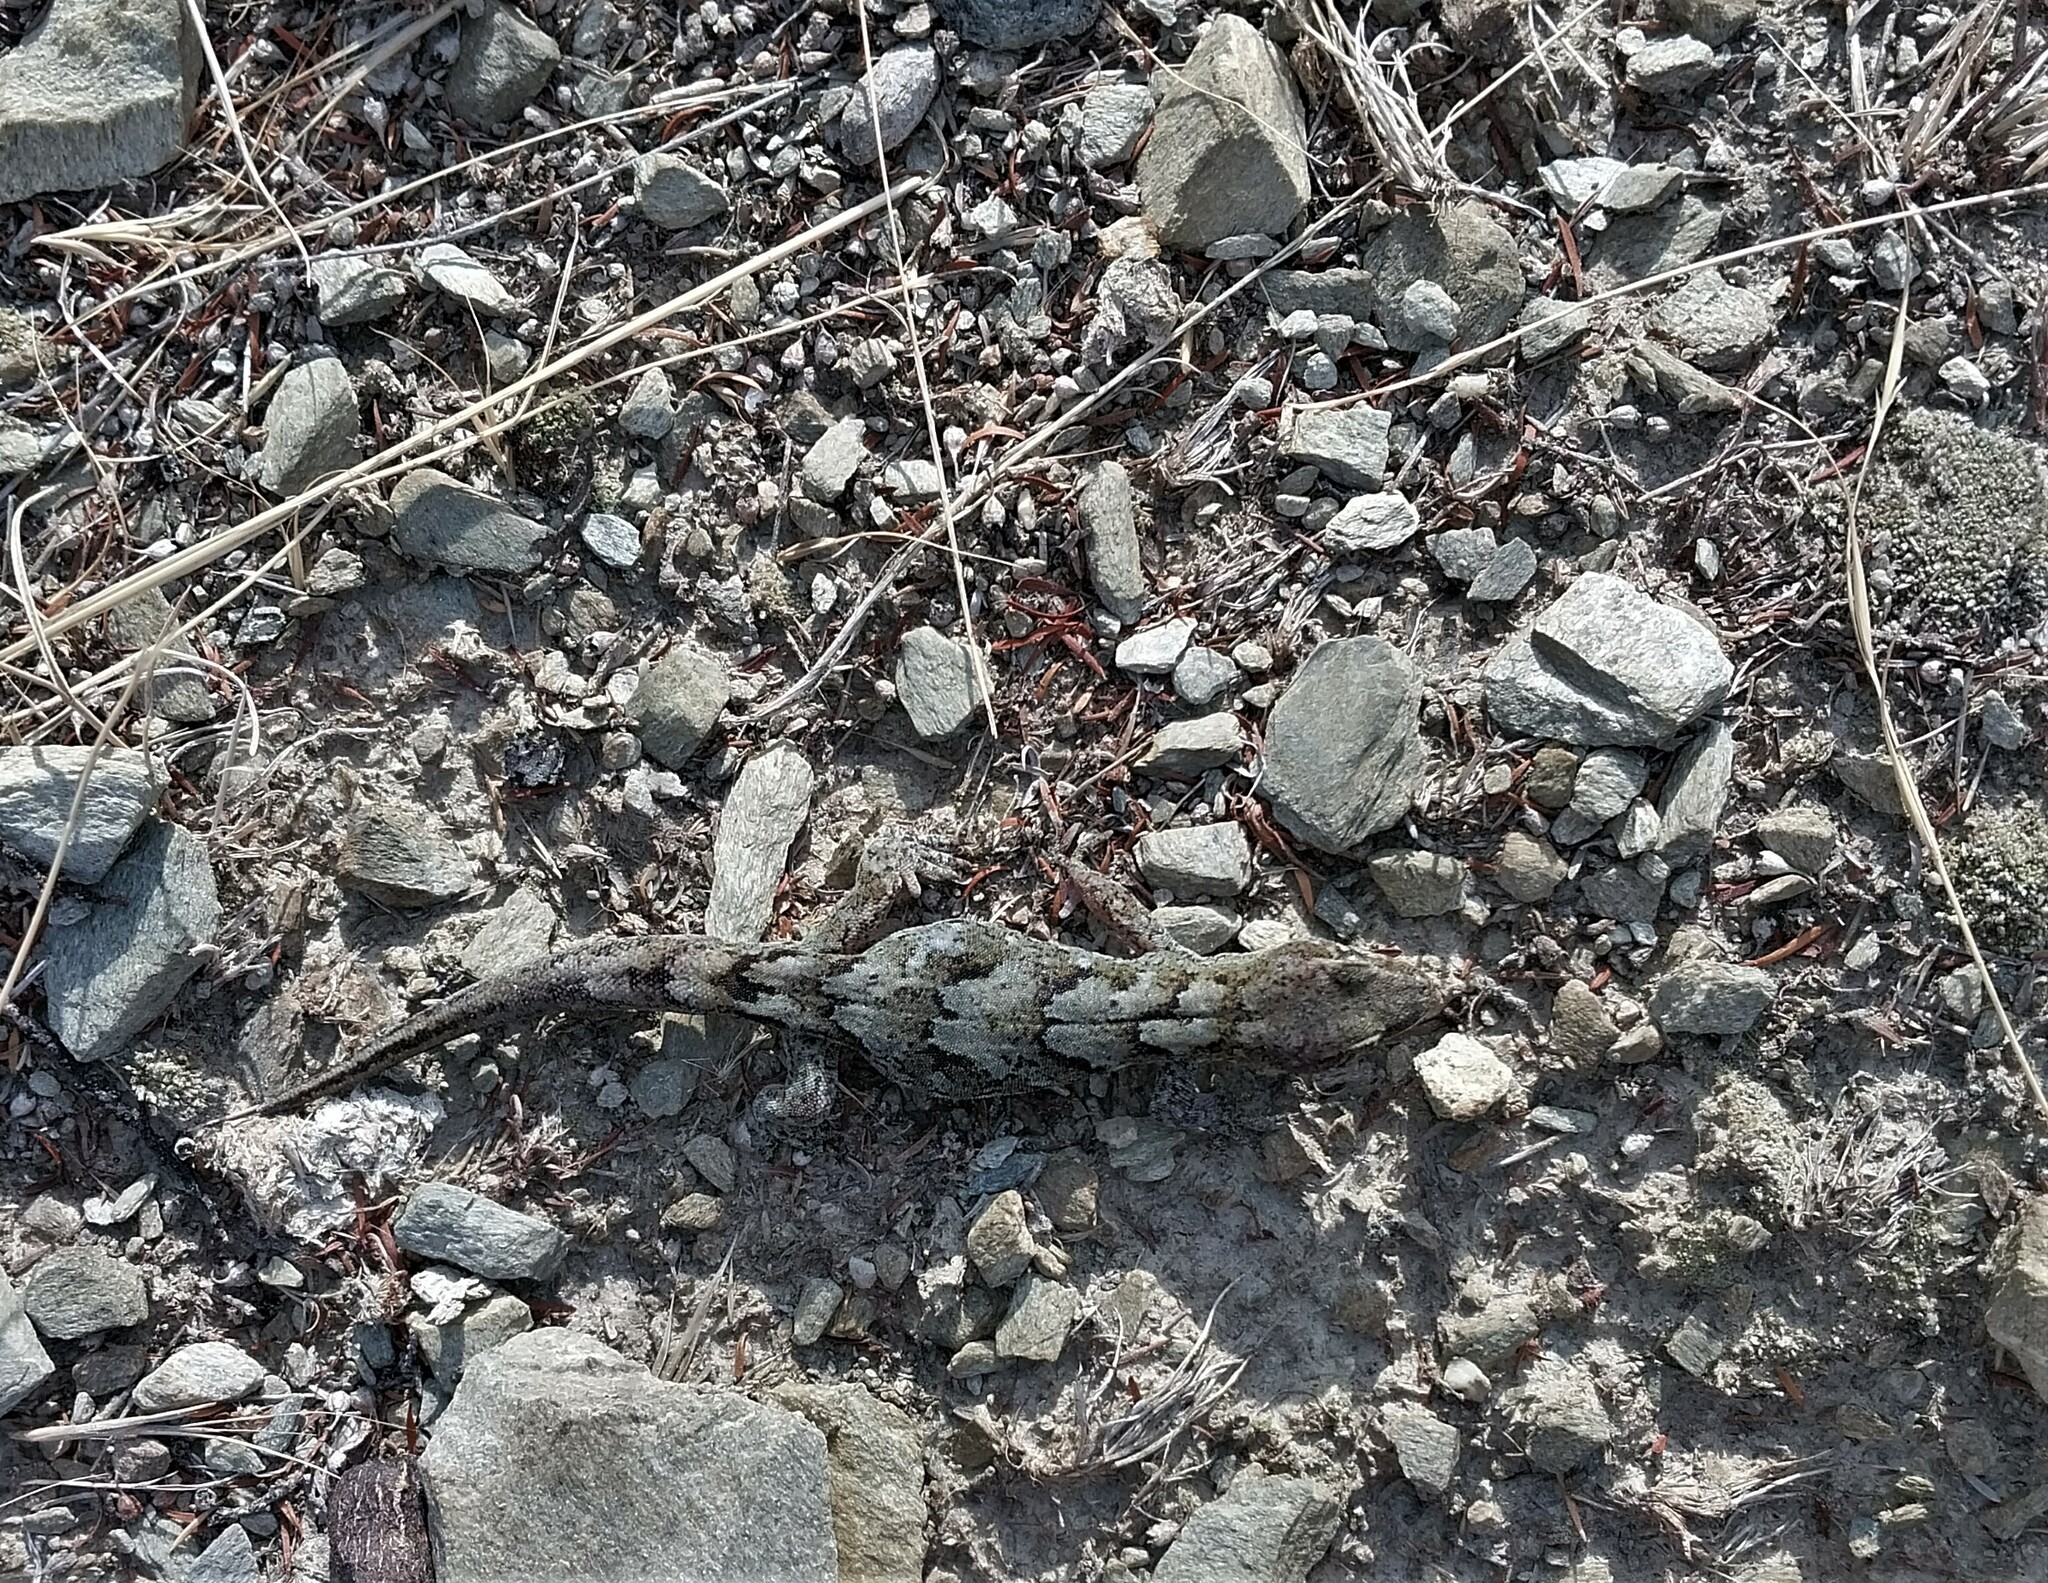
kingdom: Animalia
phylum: Chordata
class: Squamata
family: Diplodactylidae
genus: Woodworthia
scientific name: Woodworthia
